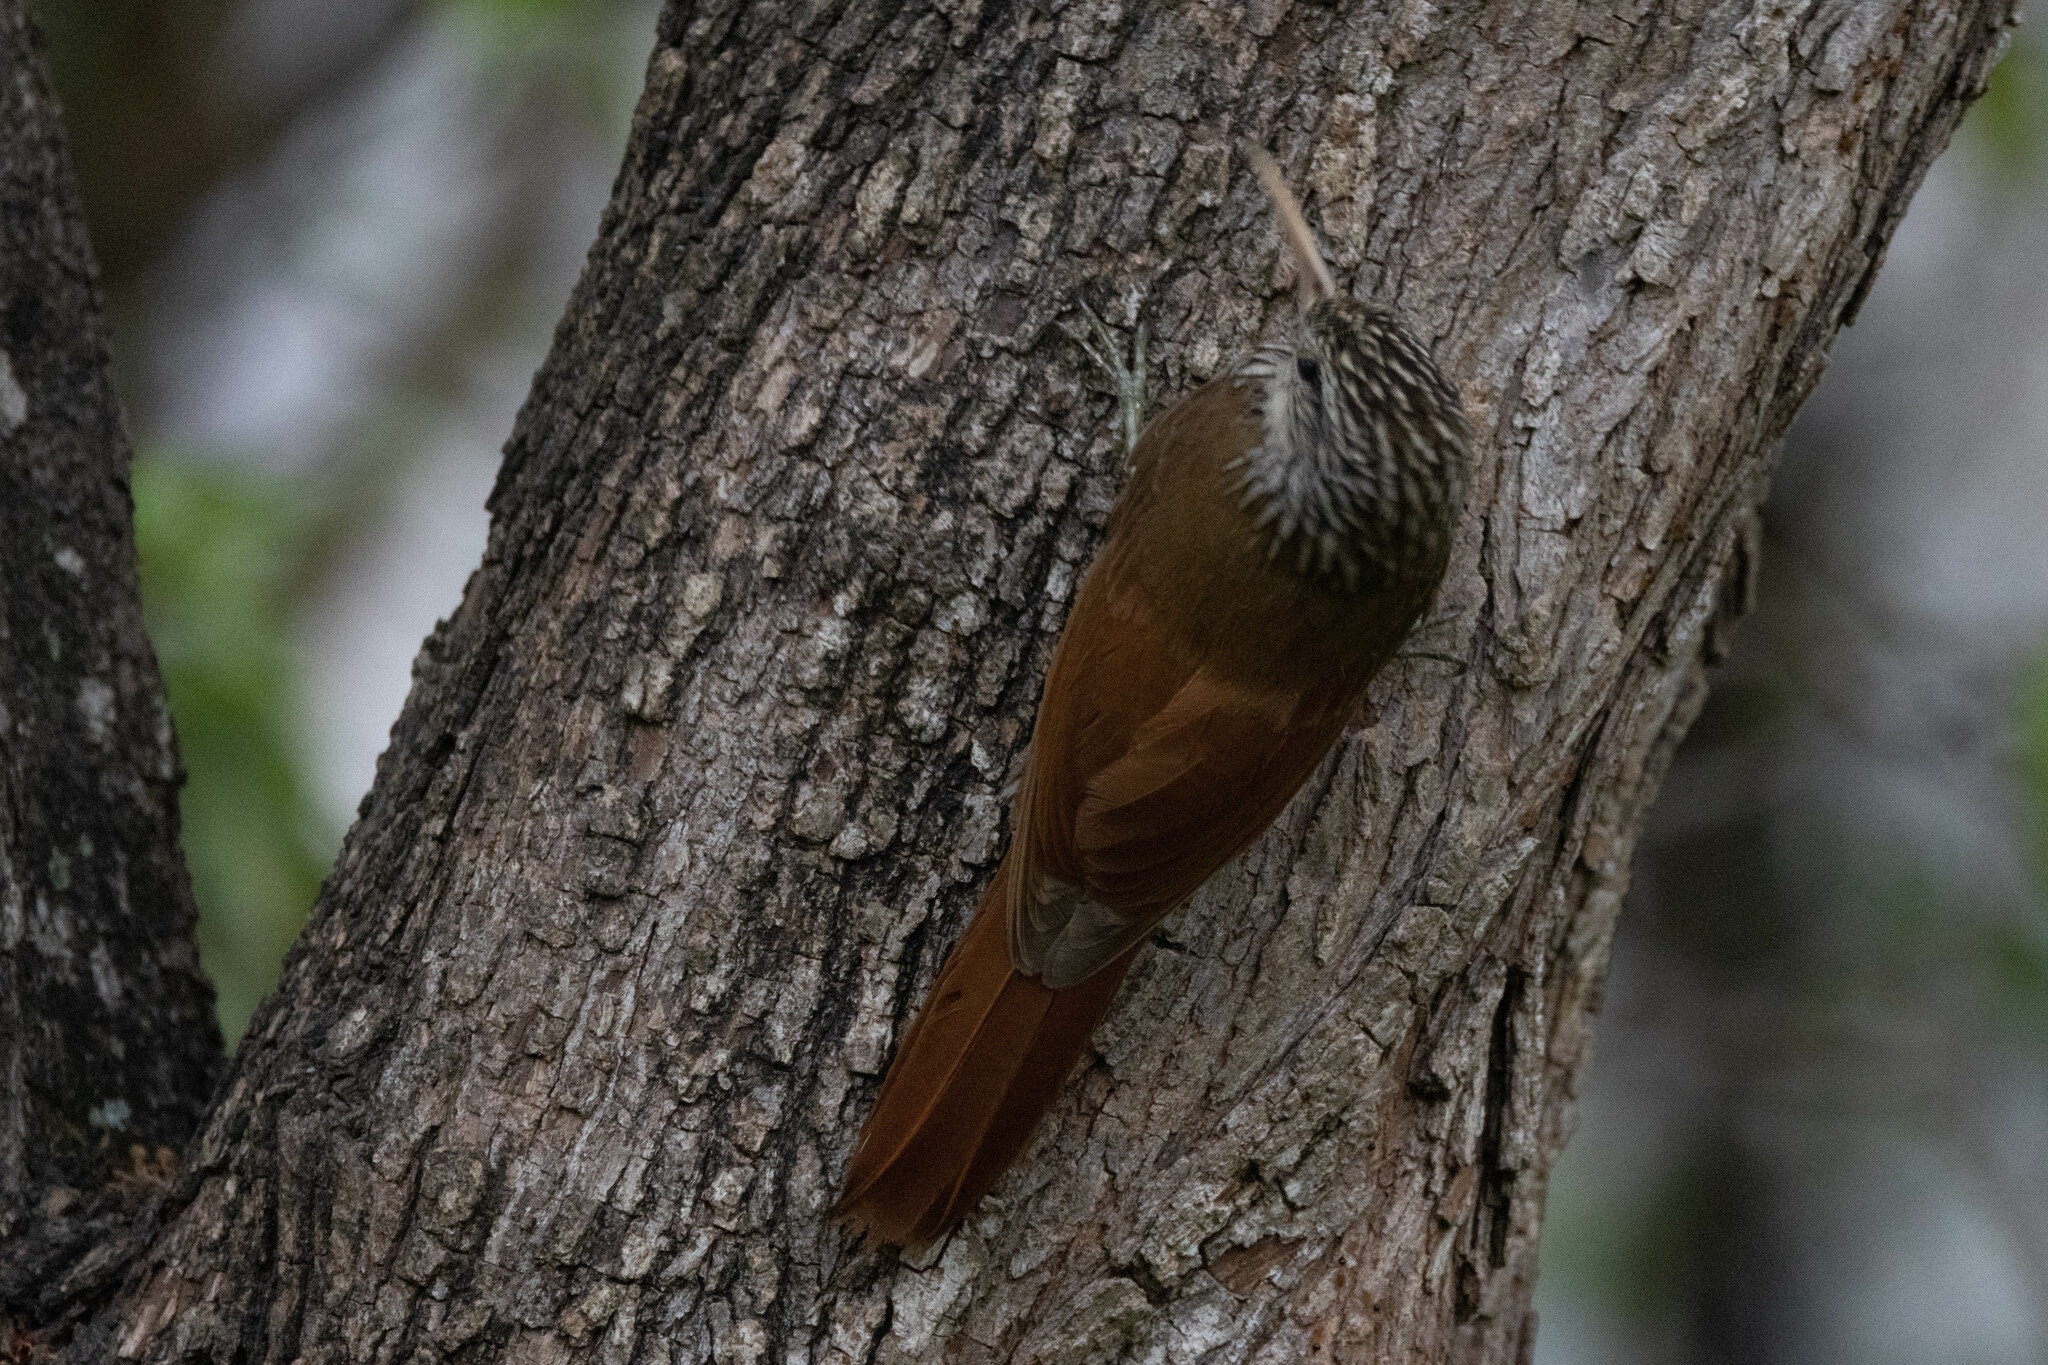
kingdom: Animalia
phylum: Chordata
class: Aves
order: Passeriformes
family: Furnariidae
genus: Lepidocolaptes
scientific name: Lepidocolaptes souleyetii
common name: Streak-headed woodcreeper
